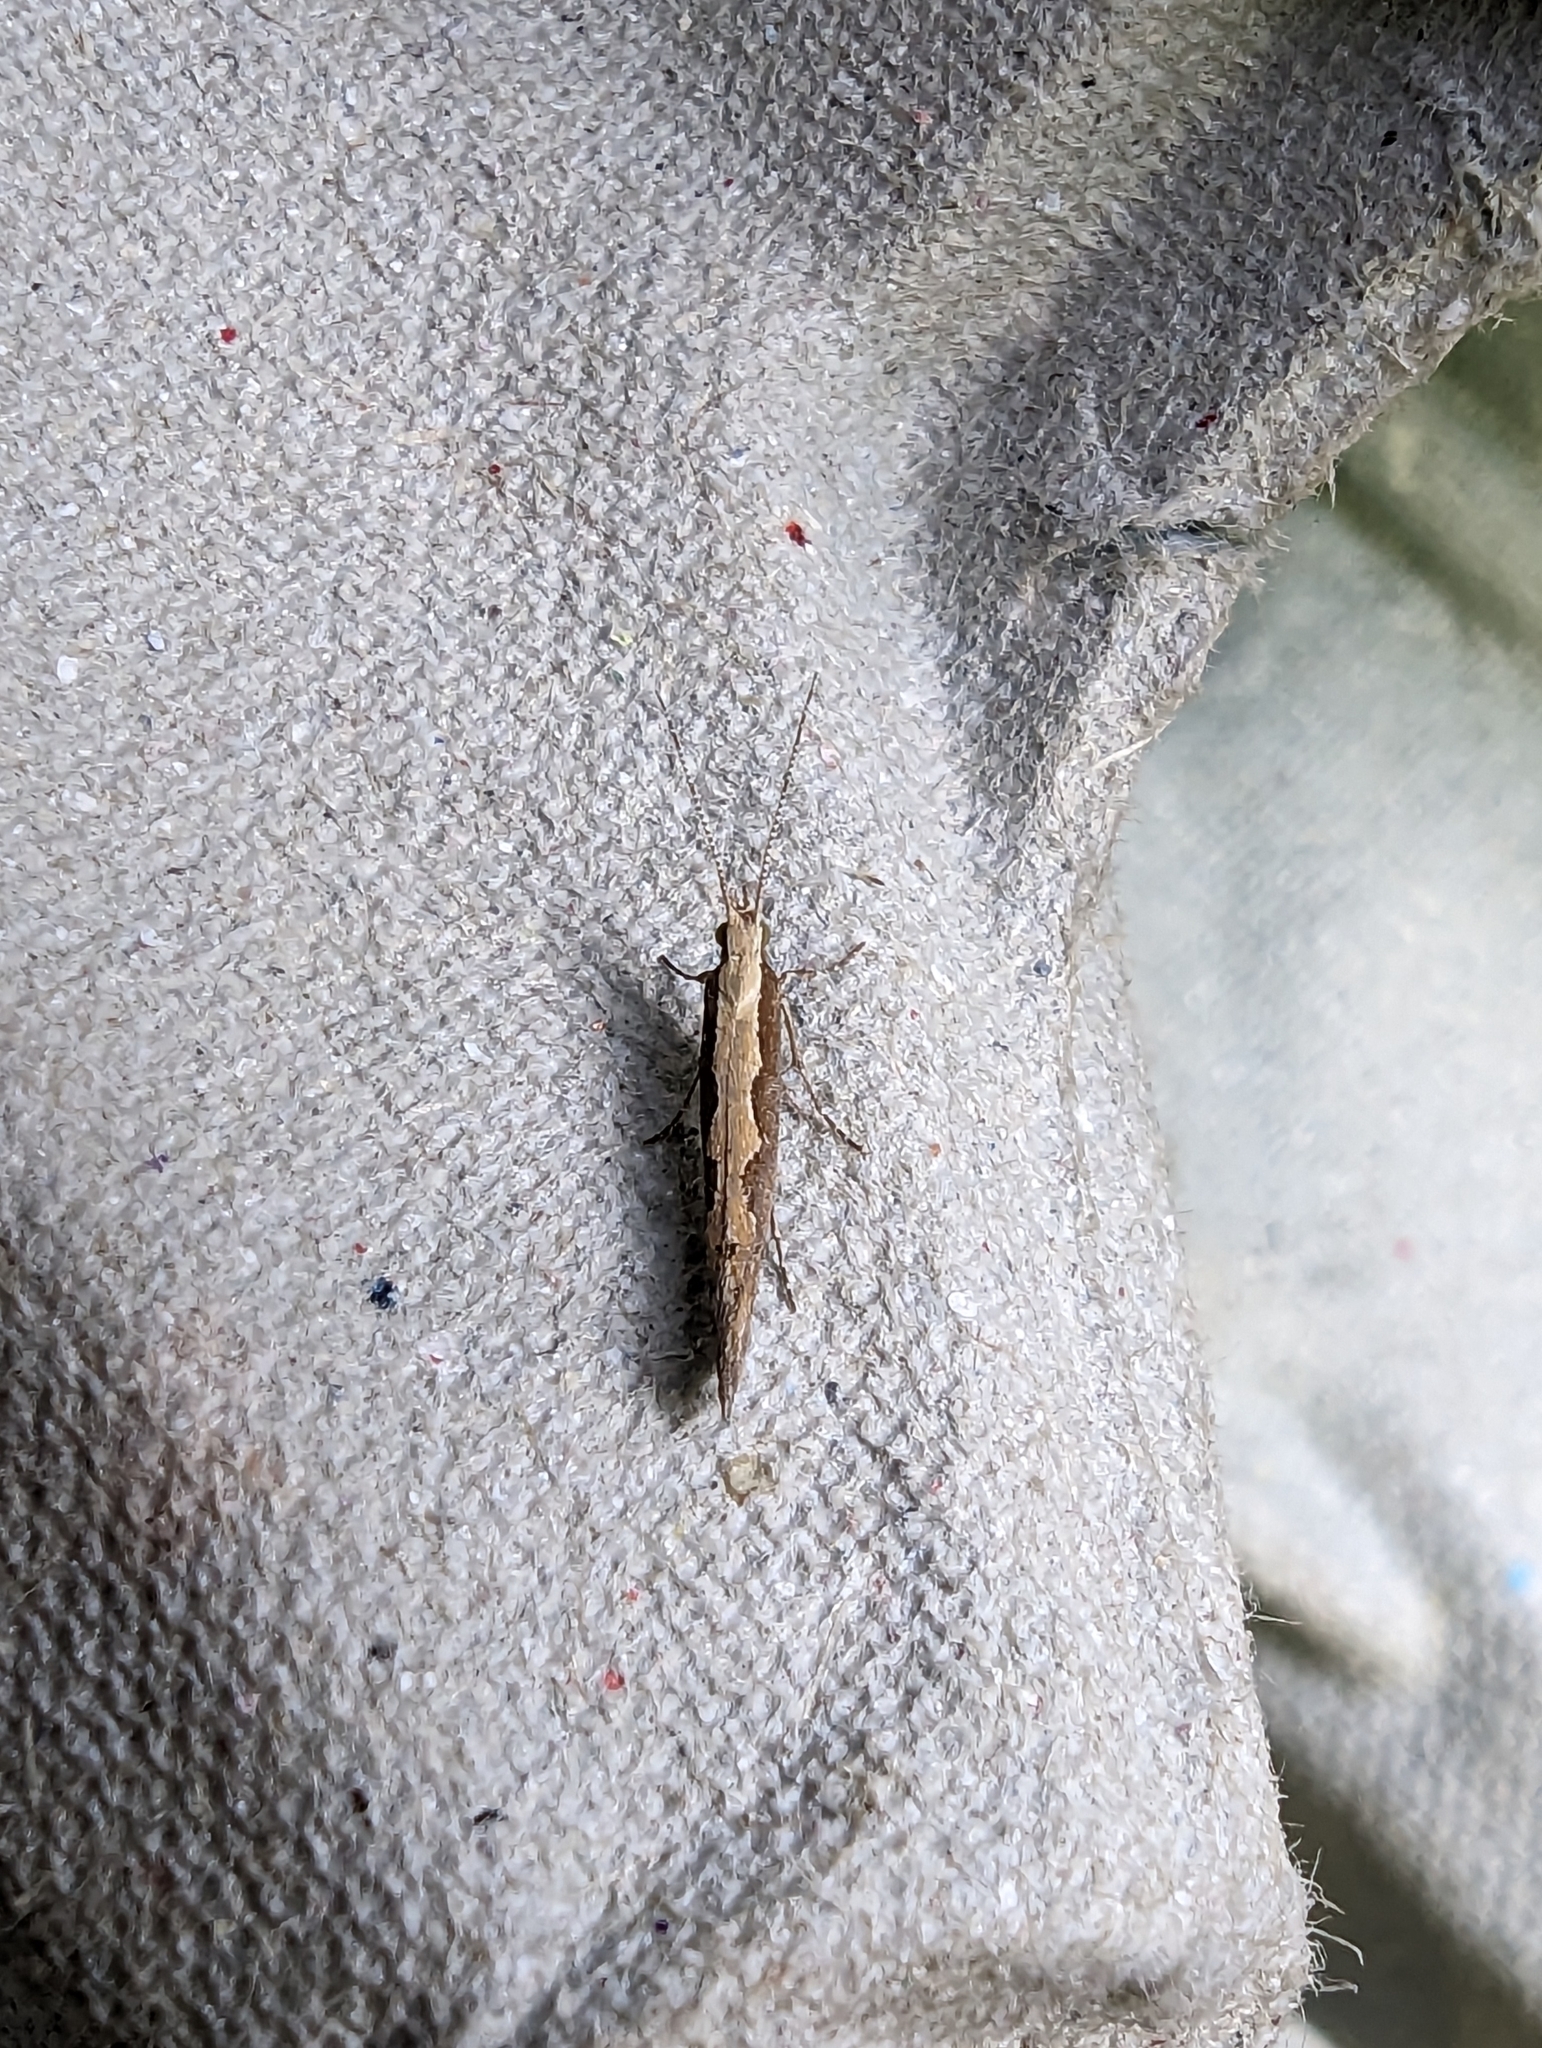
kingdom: Animalia
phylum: Arthropoda
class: Insecta
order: Lepidoptera
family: Plutellidae
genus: Plutella
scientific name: Plutella xylostella
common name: Diamond-back moth
